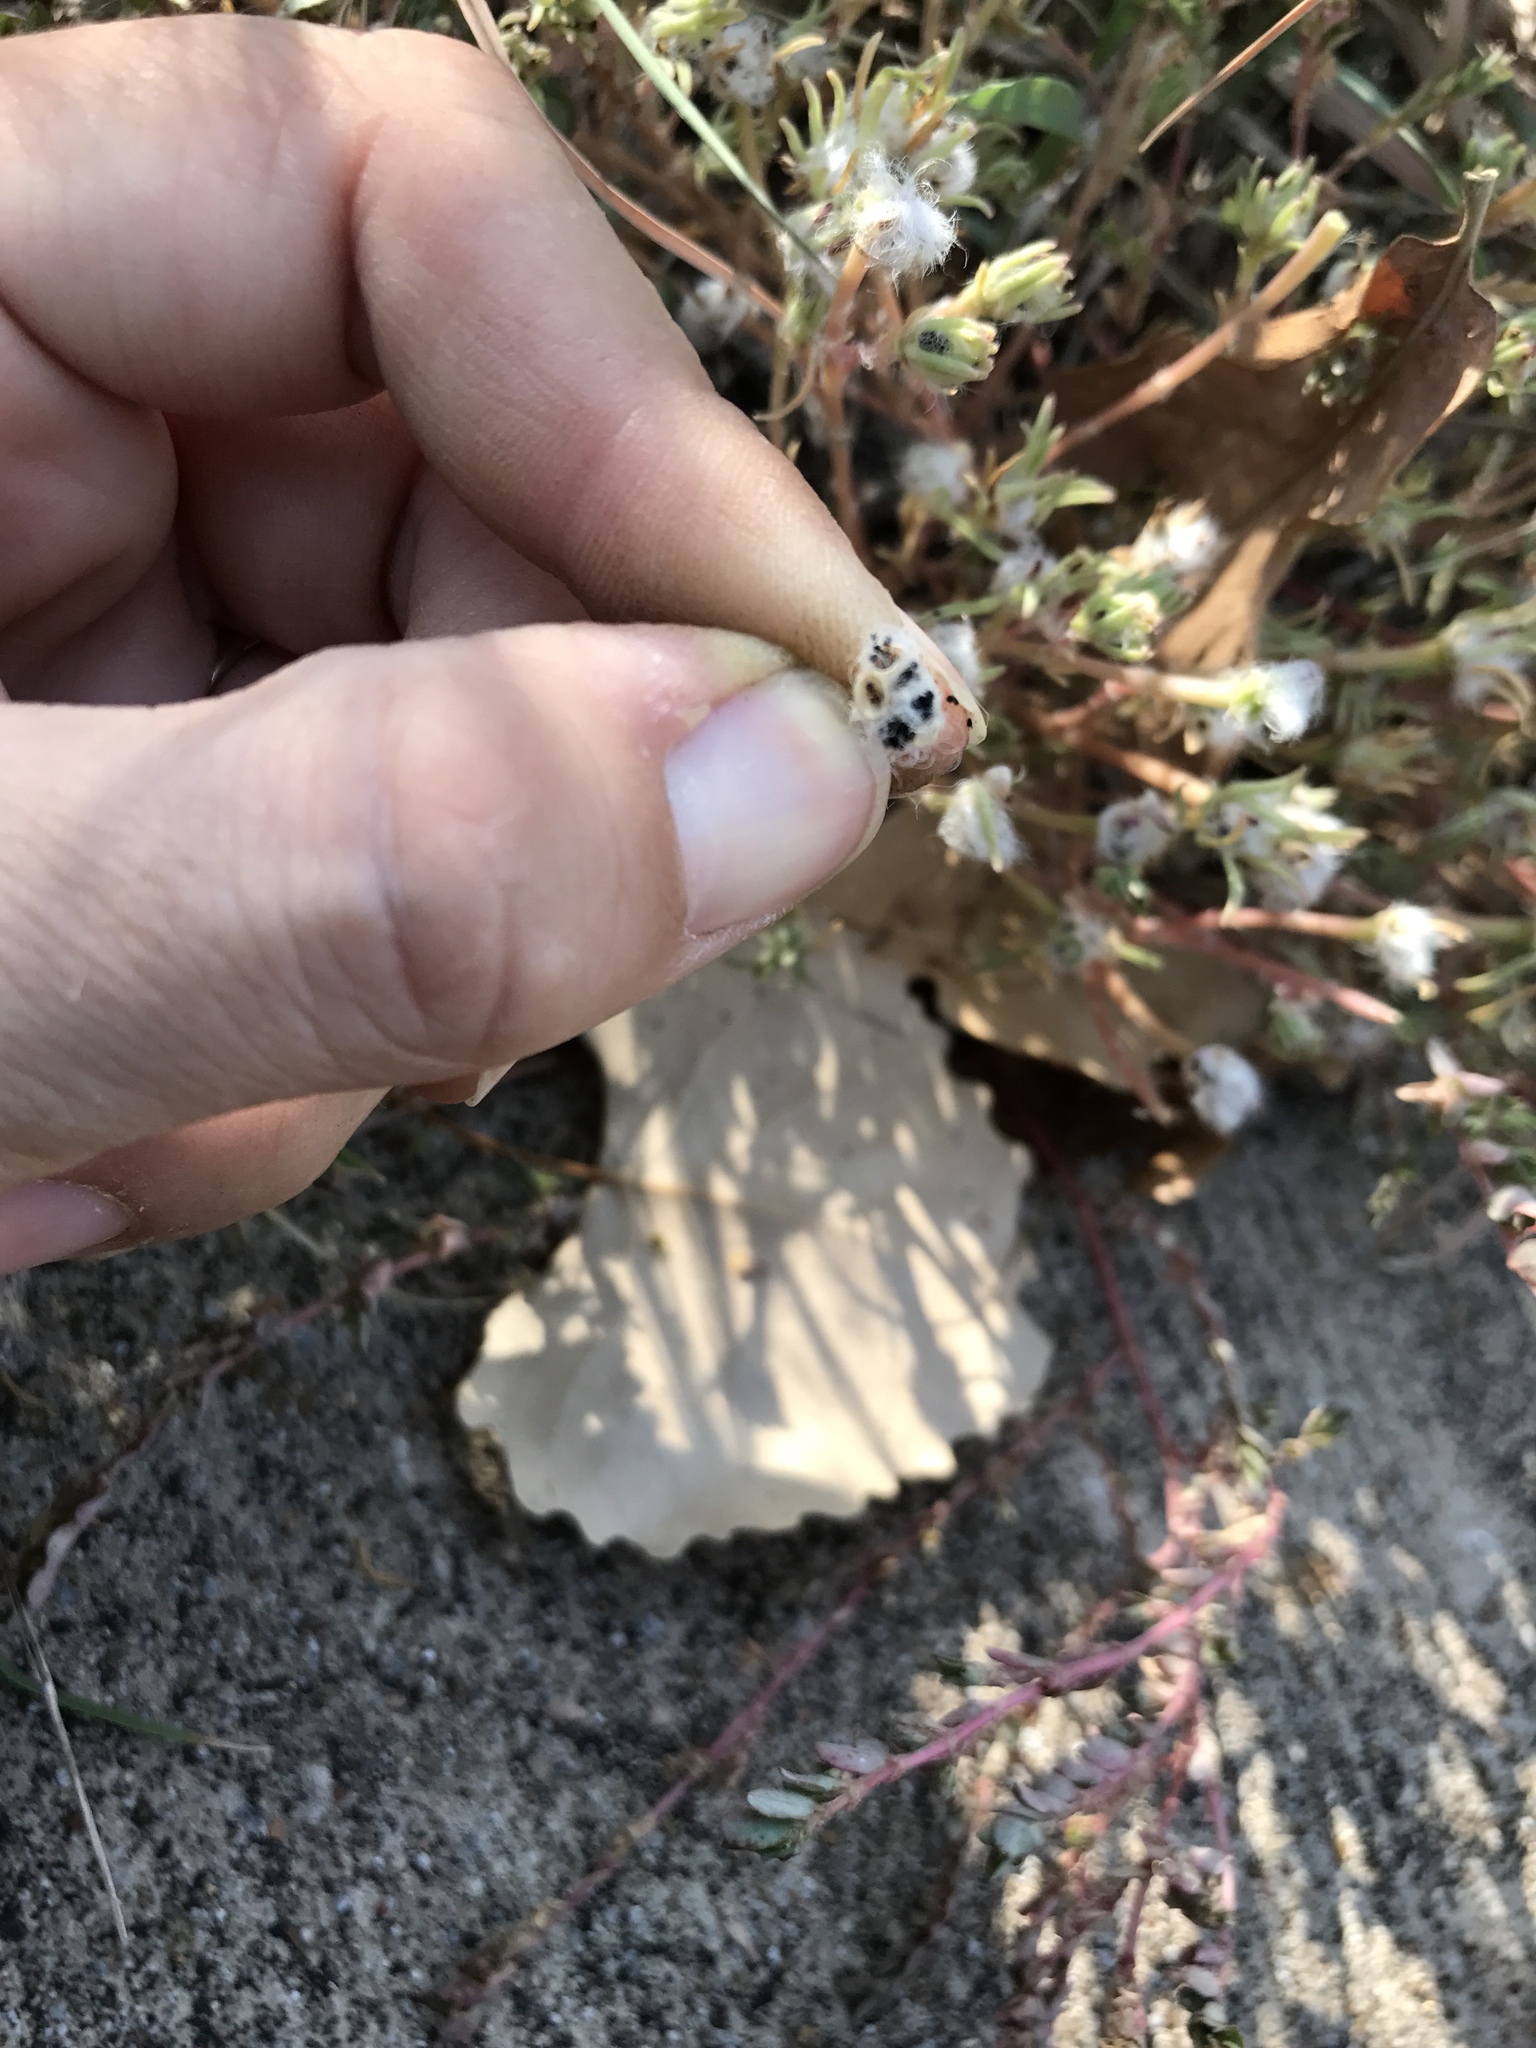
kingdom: Plantae
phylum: Tracheophyta
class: Magnoliopsida
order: Caryophyllales
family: Portulacaceae
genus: Portulaca
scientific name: Portulaca pilosa
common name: Kiss me quick
